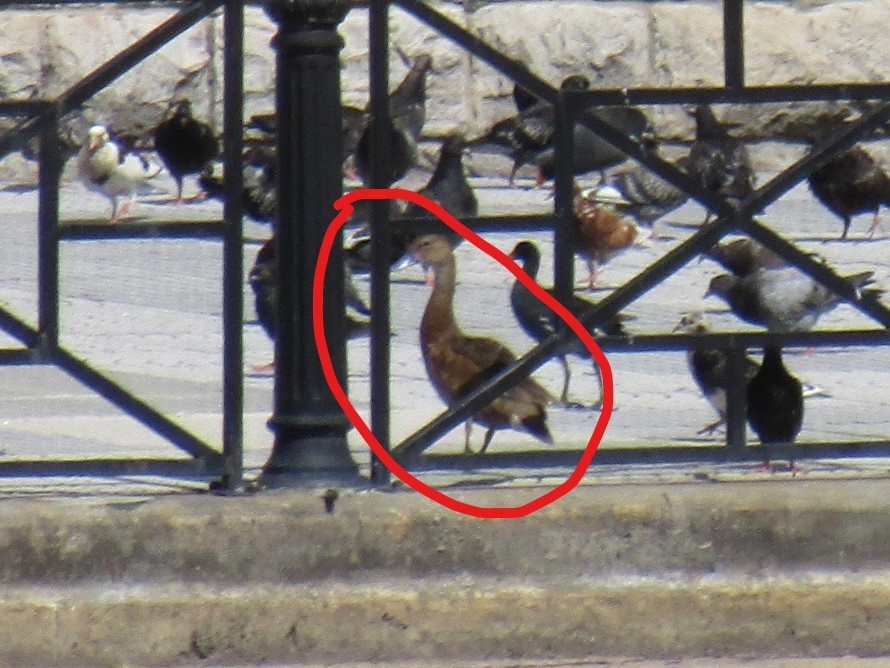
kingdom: Animalia
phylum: Chordata
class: Aves
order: Anseriformes
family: Anatidae
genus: Netta
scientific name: Netta peposaca
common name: Rosy-billed pochard
